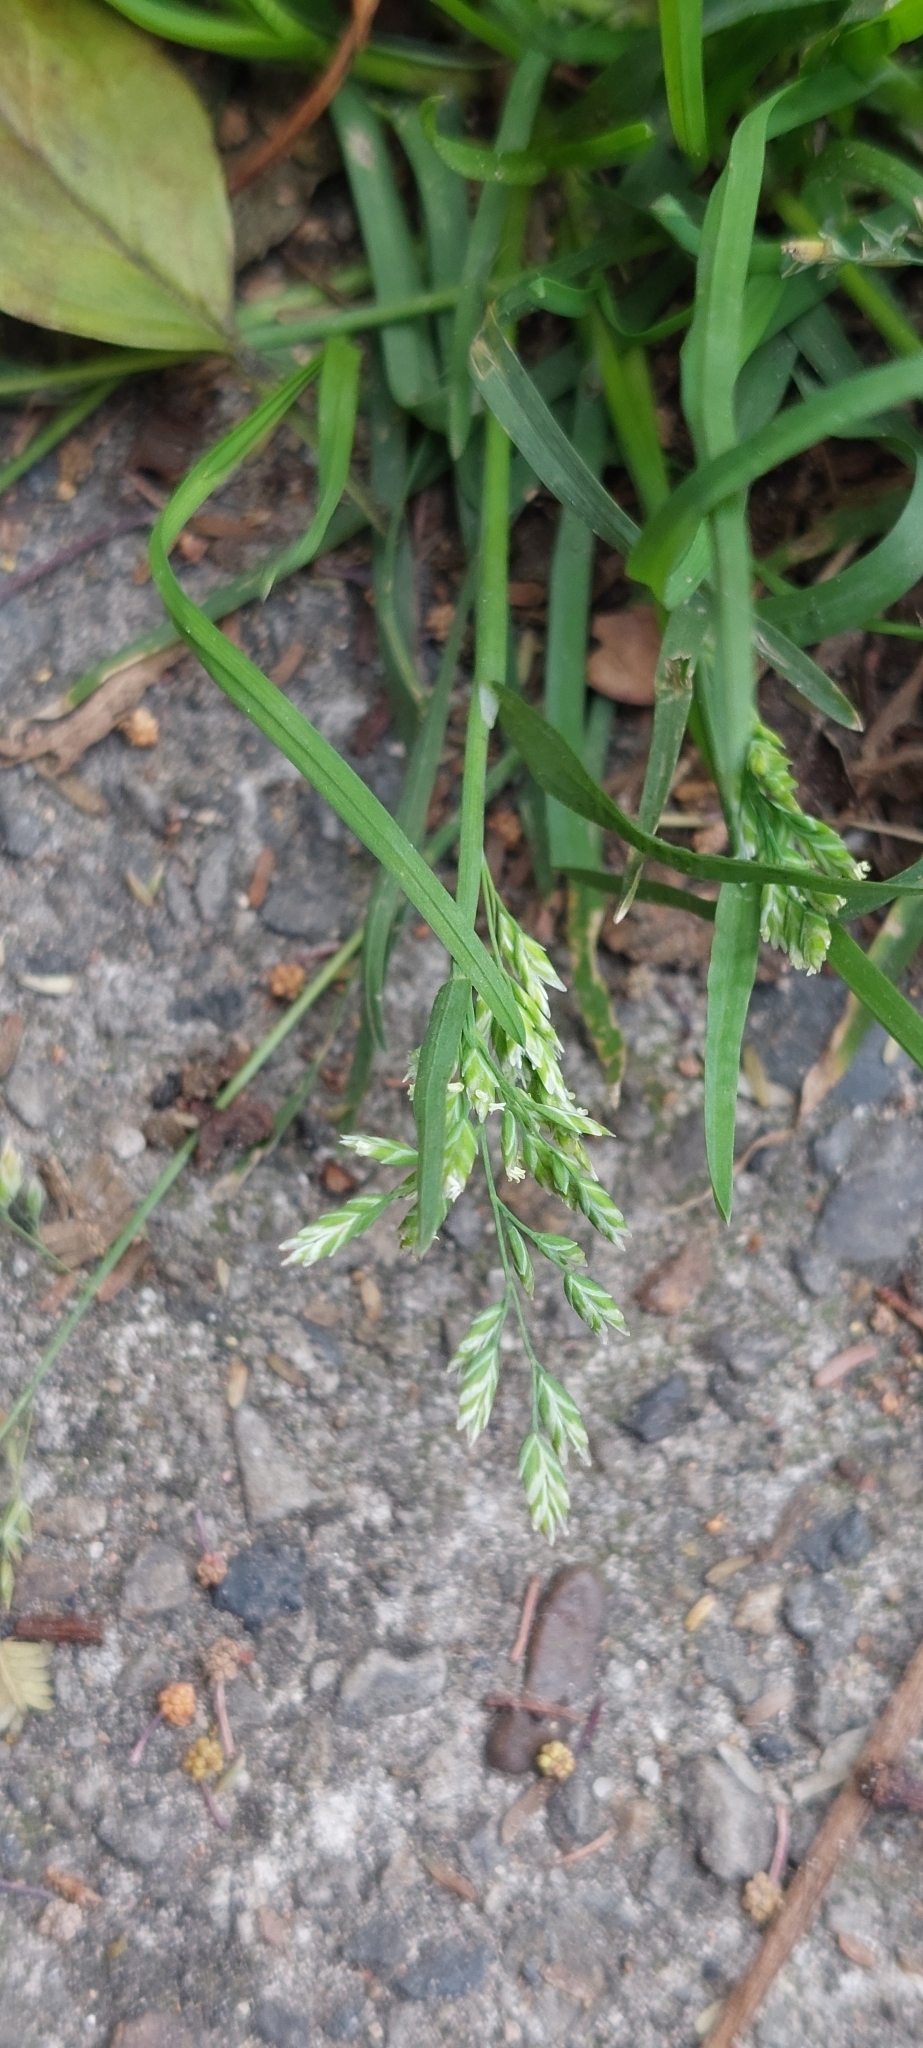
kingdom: Plantae
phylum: Tracheophyta
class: Liliopsida
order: Poales
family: Poaceae
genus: Poa
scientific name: Poa annua
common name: Annual bluegrass
